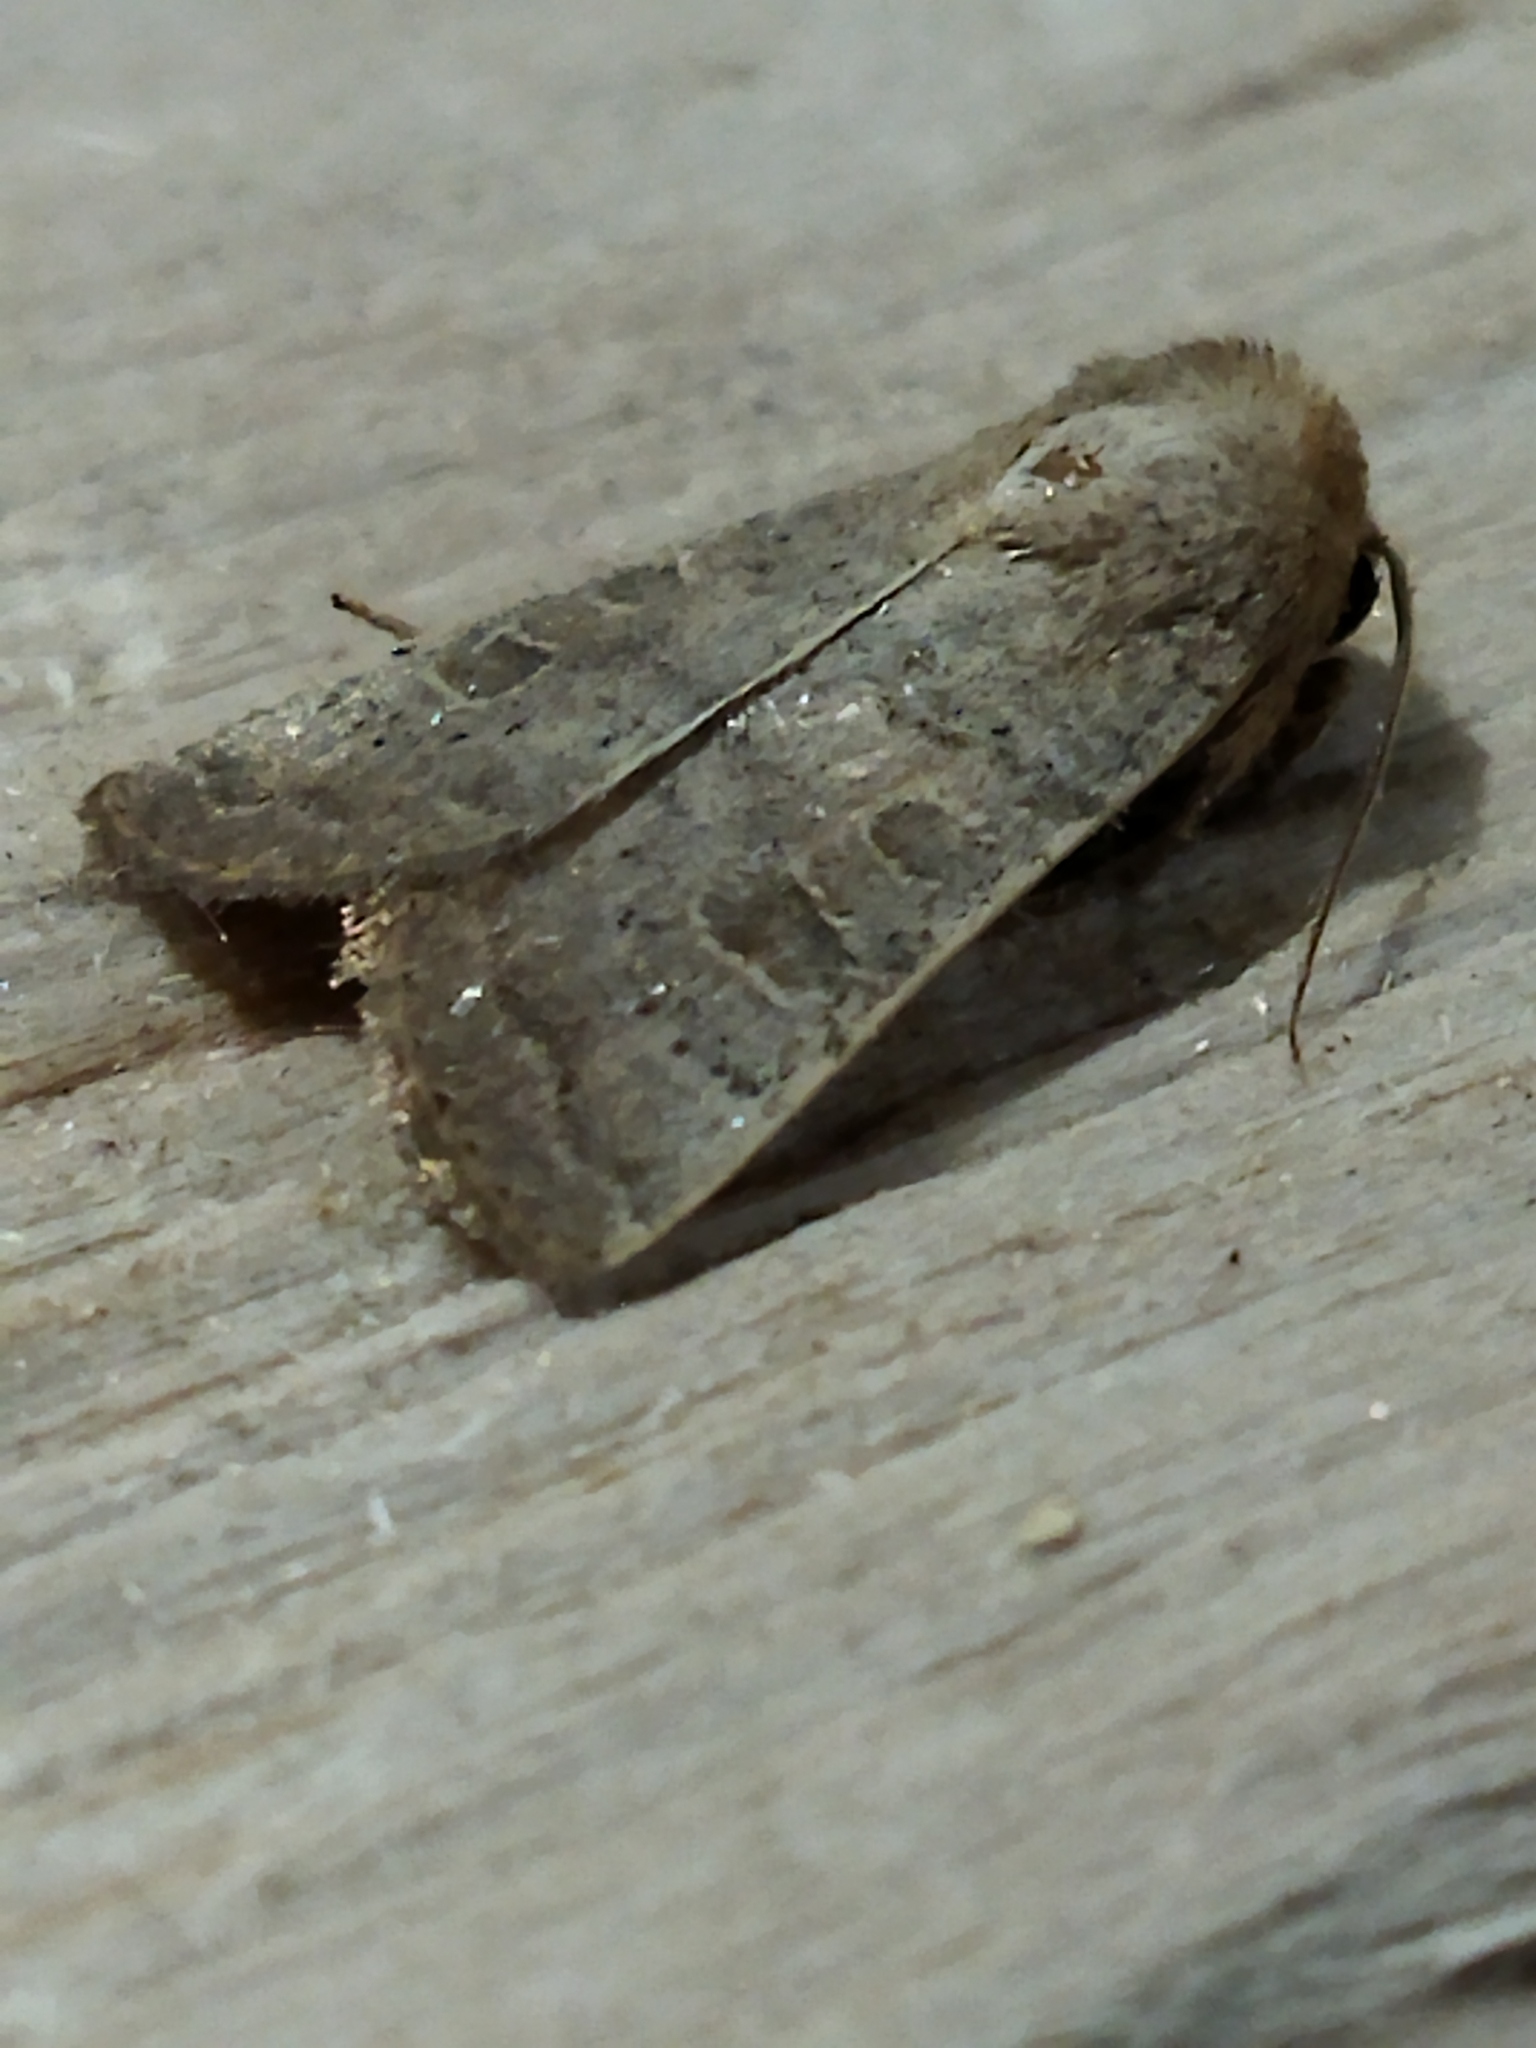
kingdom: Animalia
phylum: Arthropoda
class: Insecta
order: Lepidoptera
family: Noctuidae
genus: Hoplodrina
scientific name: Hoplodrina ambigua
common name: Vine's rustic
